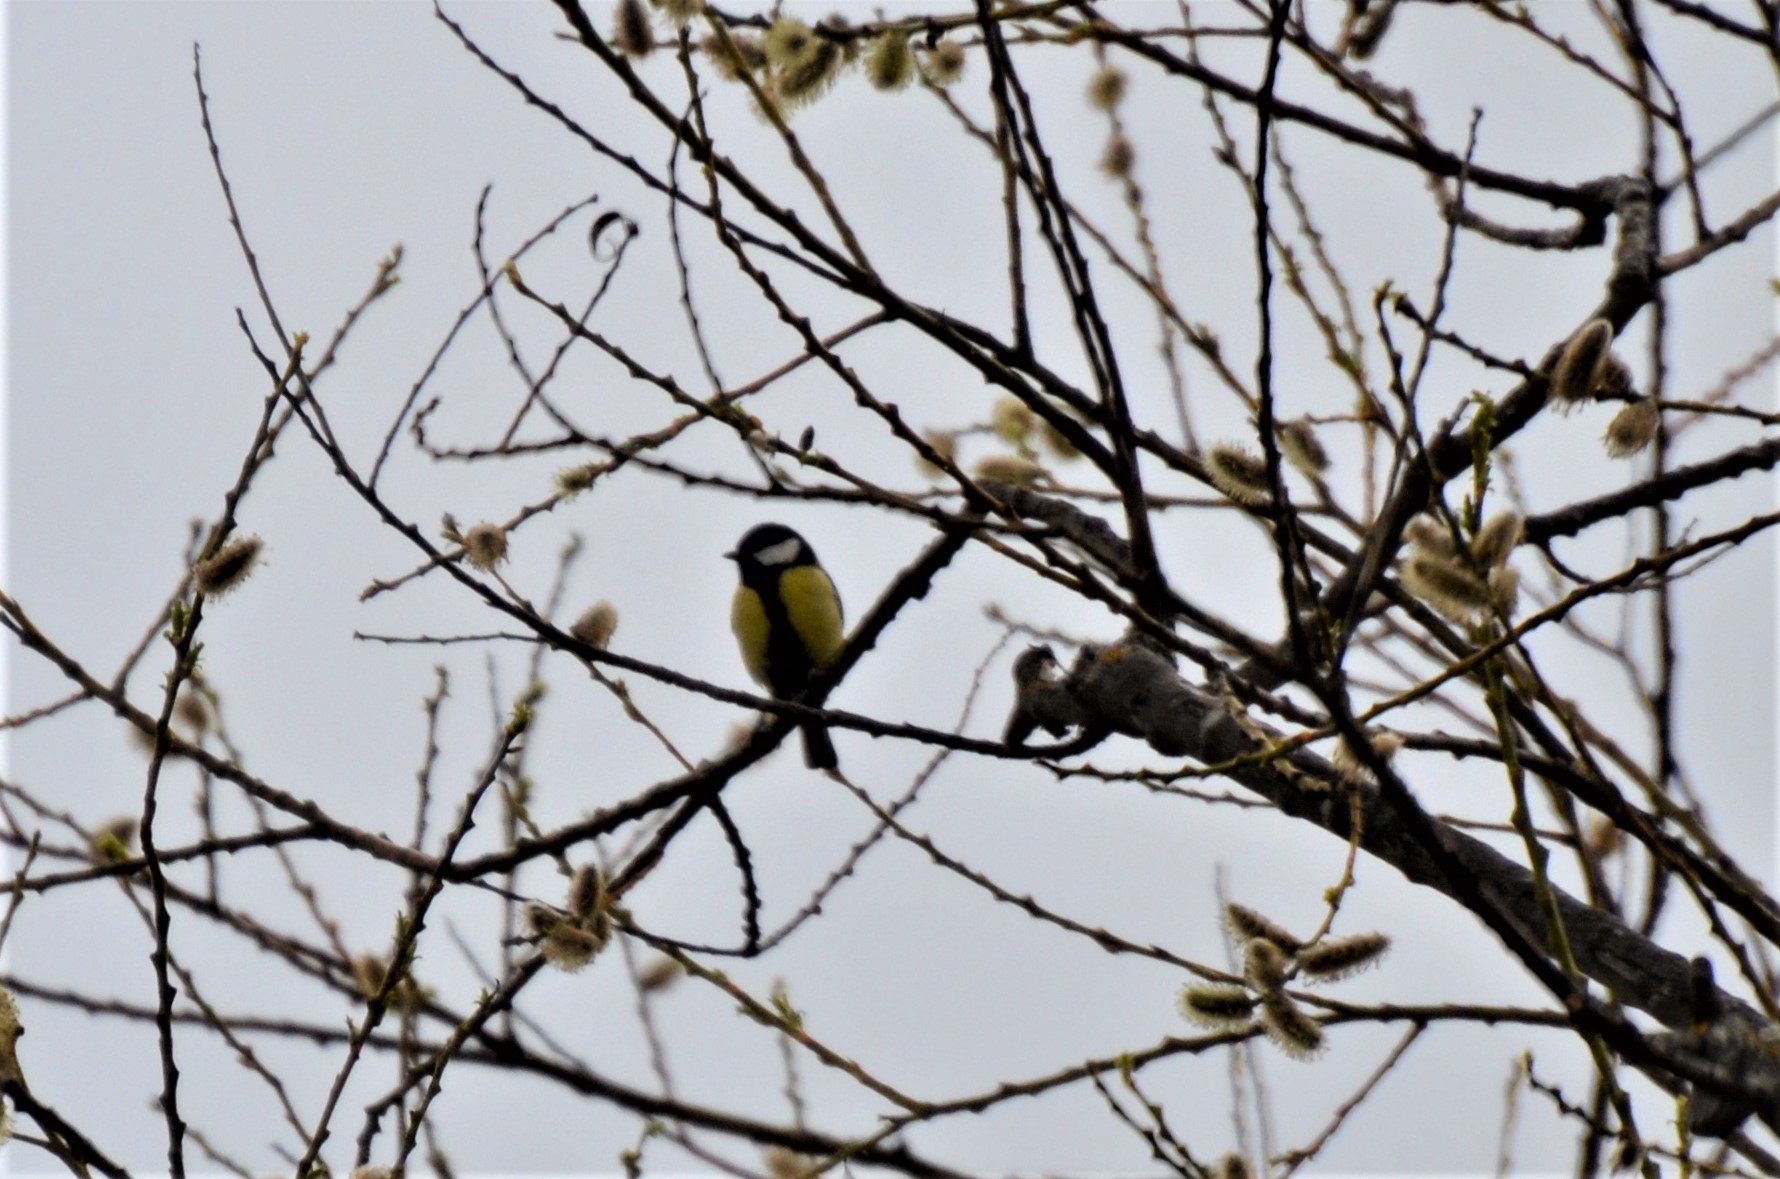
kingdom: Animalia
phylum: Chordata
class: Aves
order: Passeriformes
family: Paridae
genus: Parus
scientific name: Parus major
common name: Great tit
